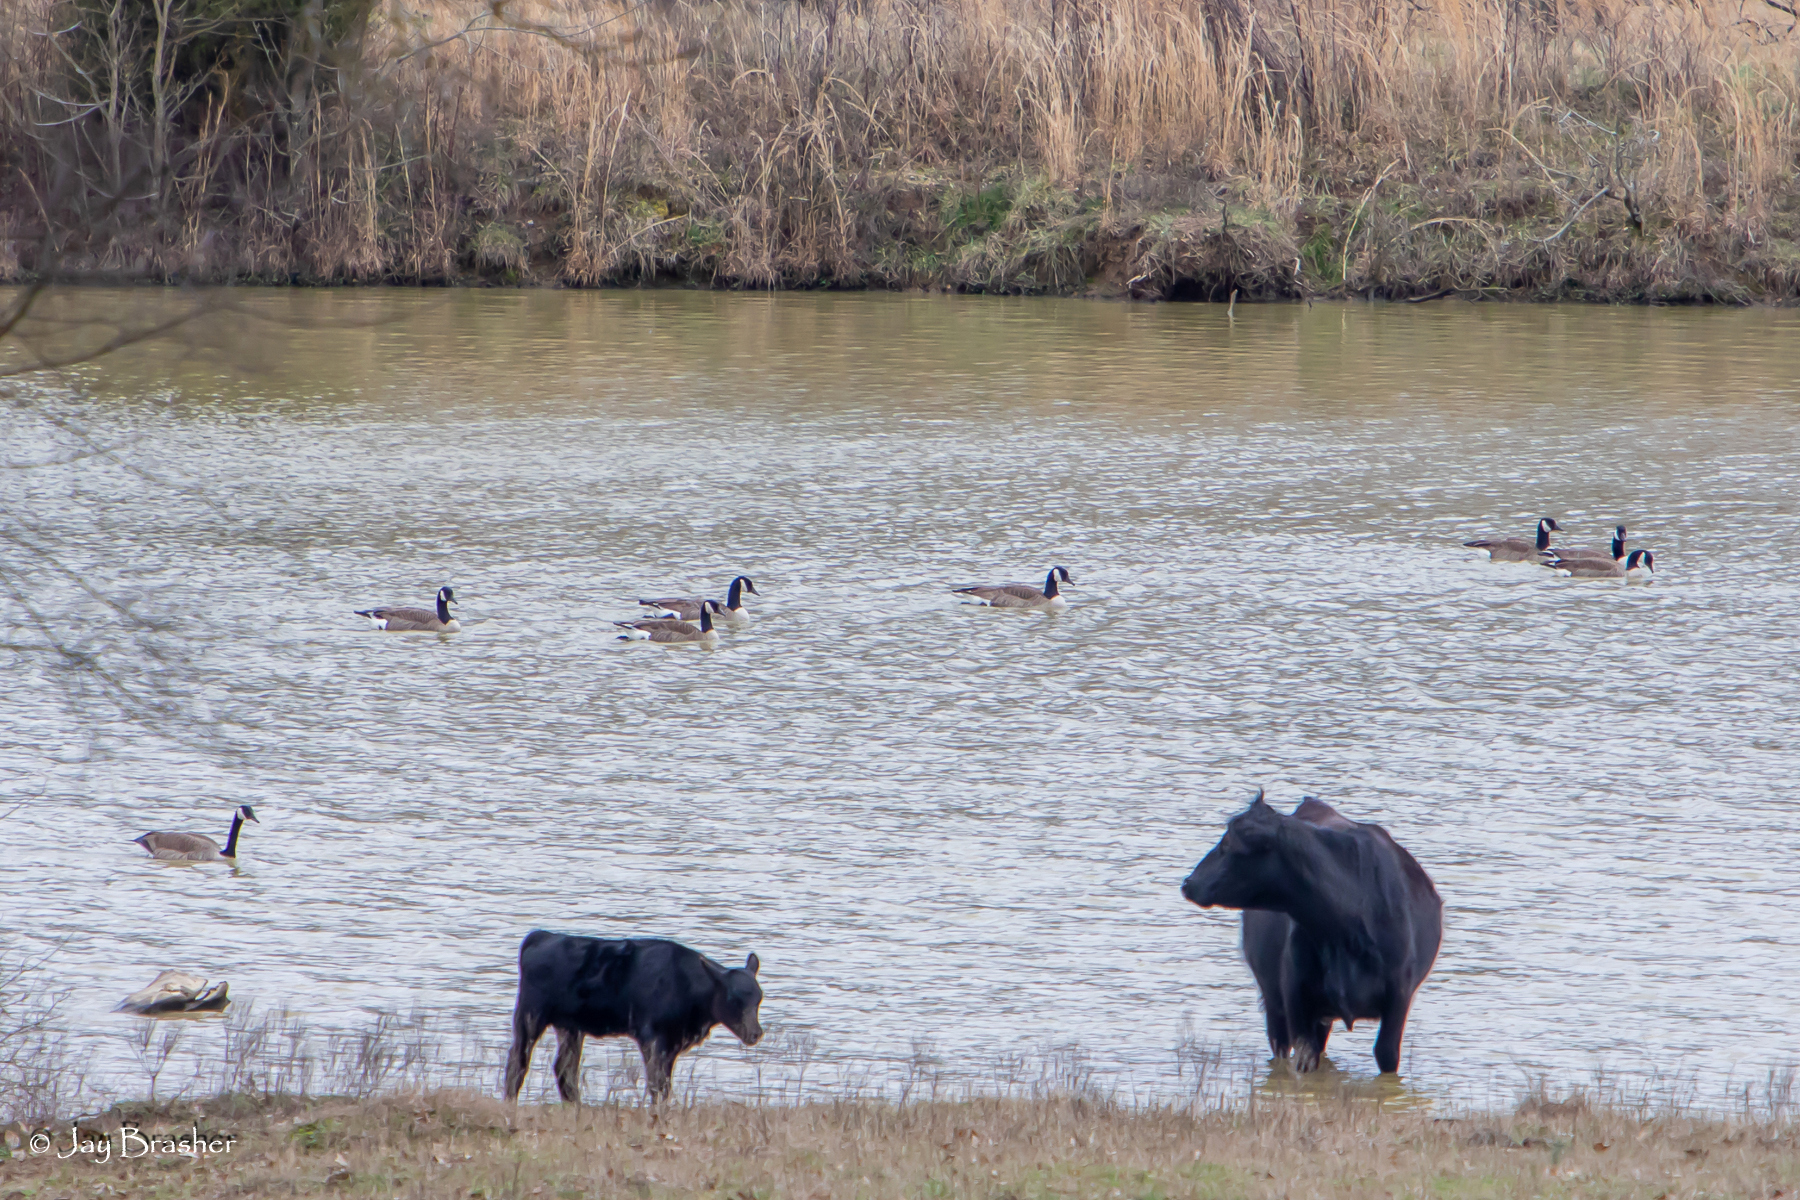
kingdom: Animalia
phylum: Chordata
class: Aves
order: Anseriformes
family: Anatidae
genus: Branta
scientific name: Branta canadensis
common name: Canada goose
